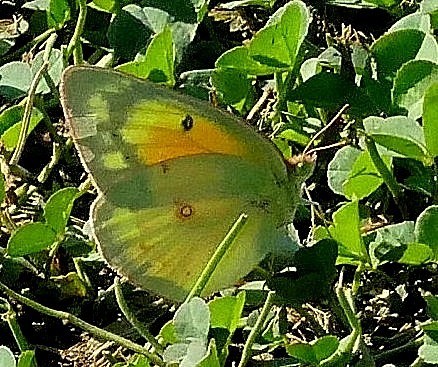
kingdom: Animalia
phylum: Arthropoda
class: Insecta
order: Lepidoptera
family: Pieridae
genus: Colias
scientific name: Colias eurytheme
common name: Alfalfa butterfly
